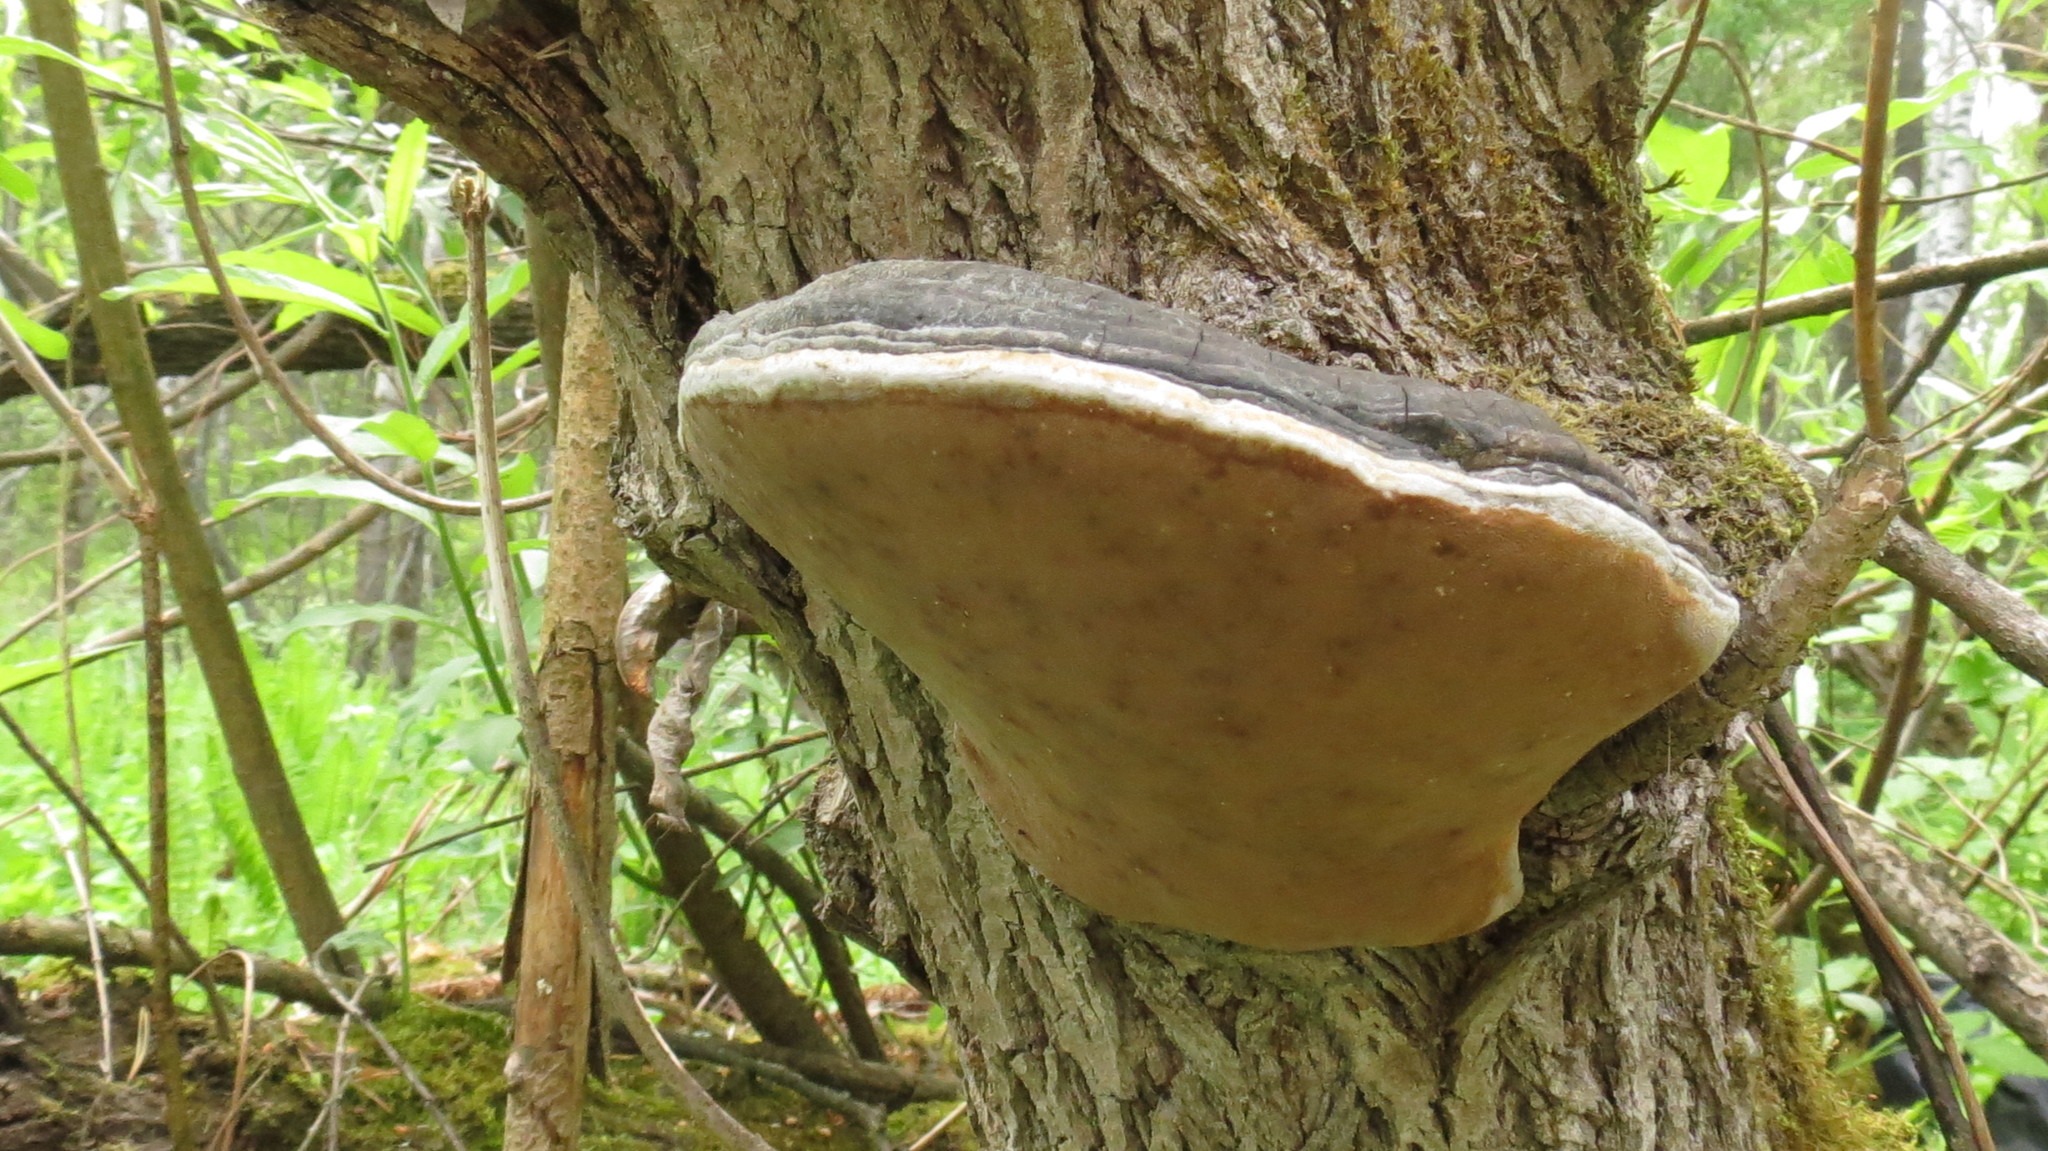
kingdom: Fungi
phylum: Basidiomycota
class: Agaricomycetes
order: Hymenochaetales
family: Hymenochaetaceae
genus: Phellinus
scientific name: Phellinus igniarius
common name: Willow bracket
